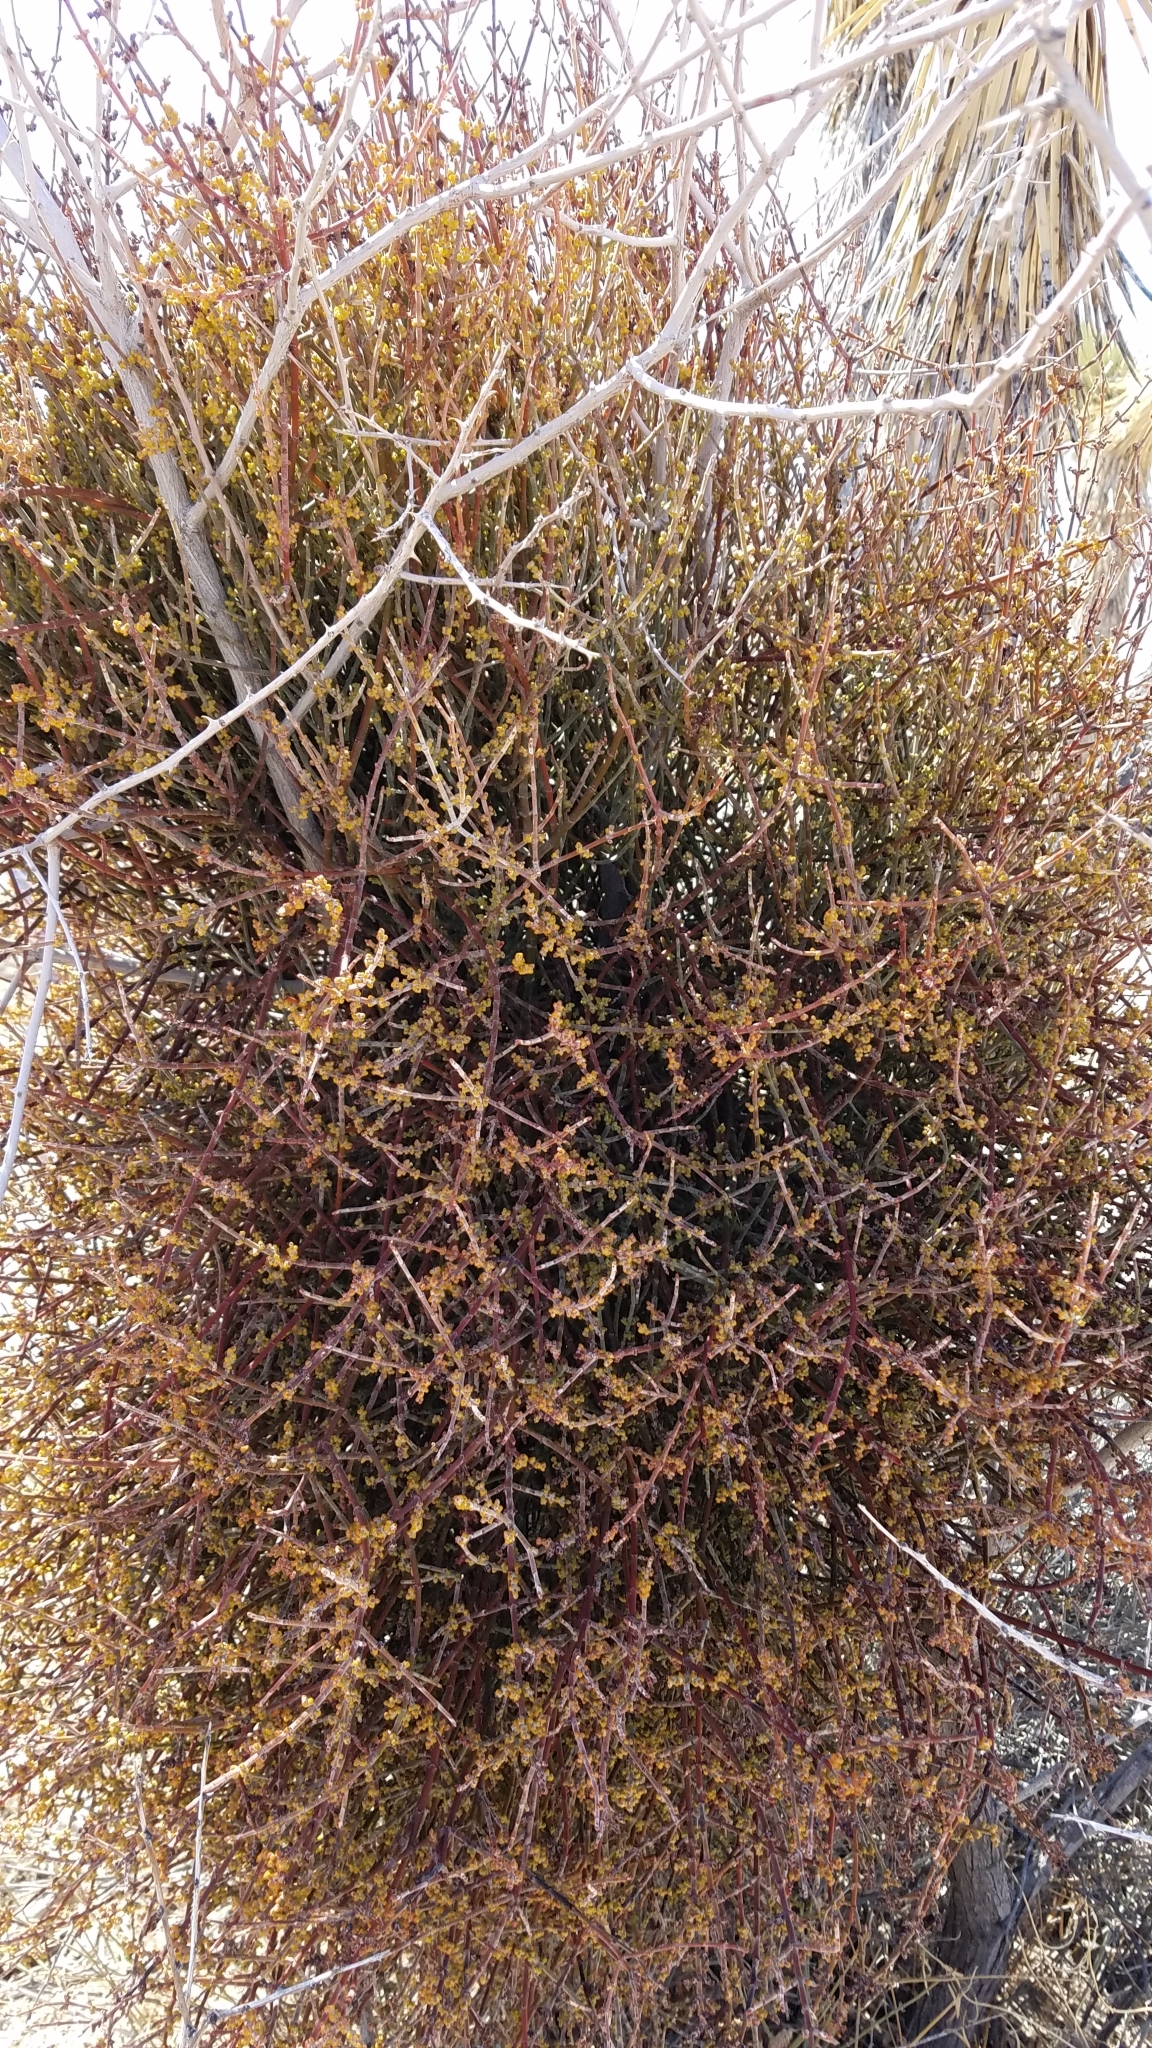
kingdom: Plantae
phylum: Tracheophyta
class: Magnoliopsida
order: Santalales
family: Viscaceae
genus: Phoradendron
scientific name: Phoradendron californicum
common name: Acacia mistletoe
